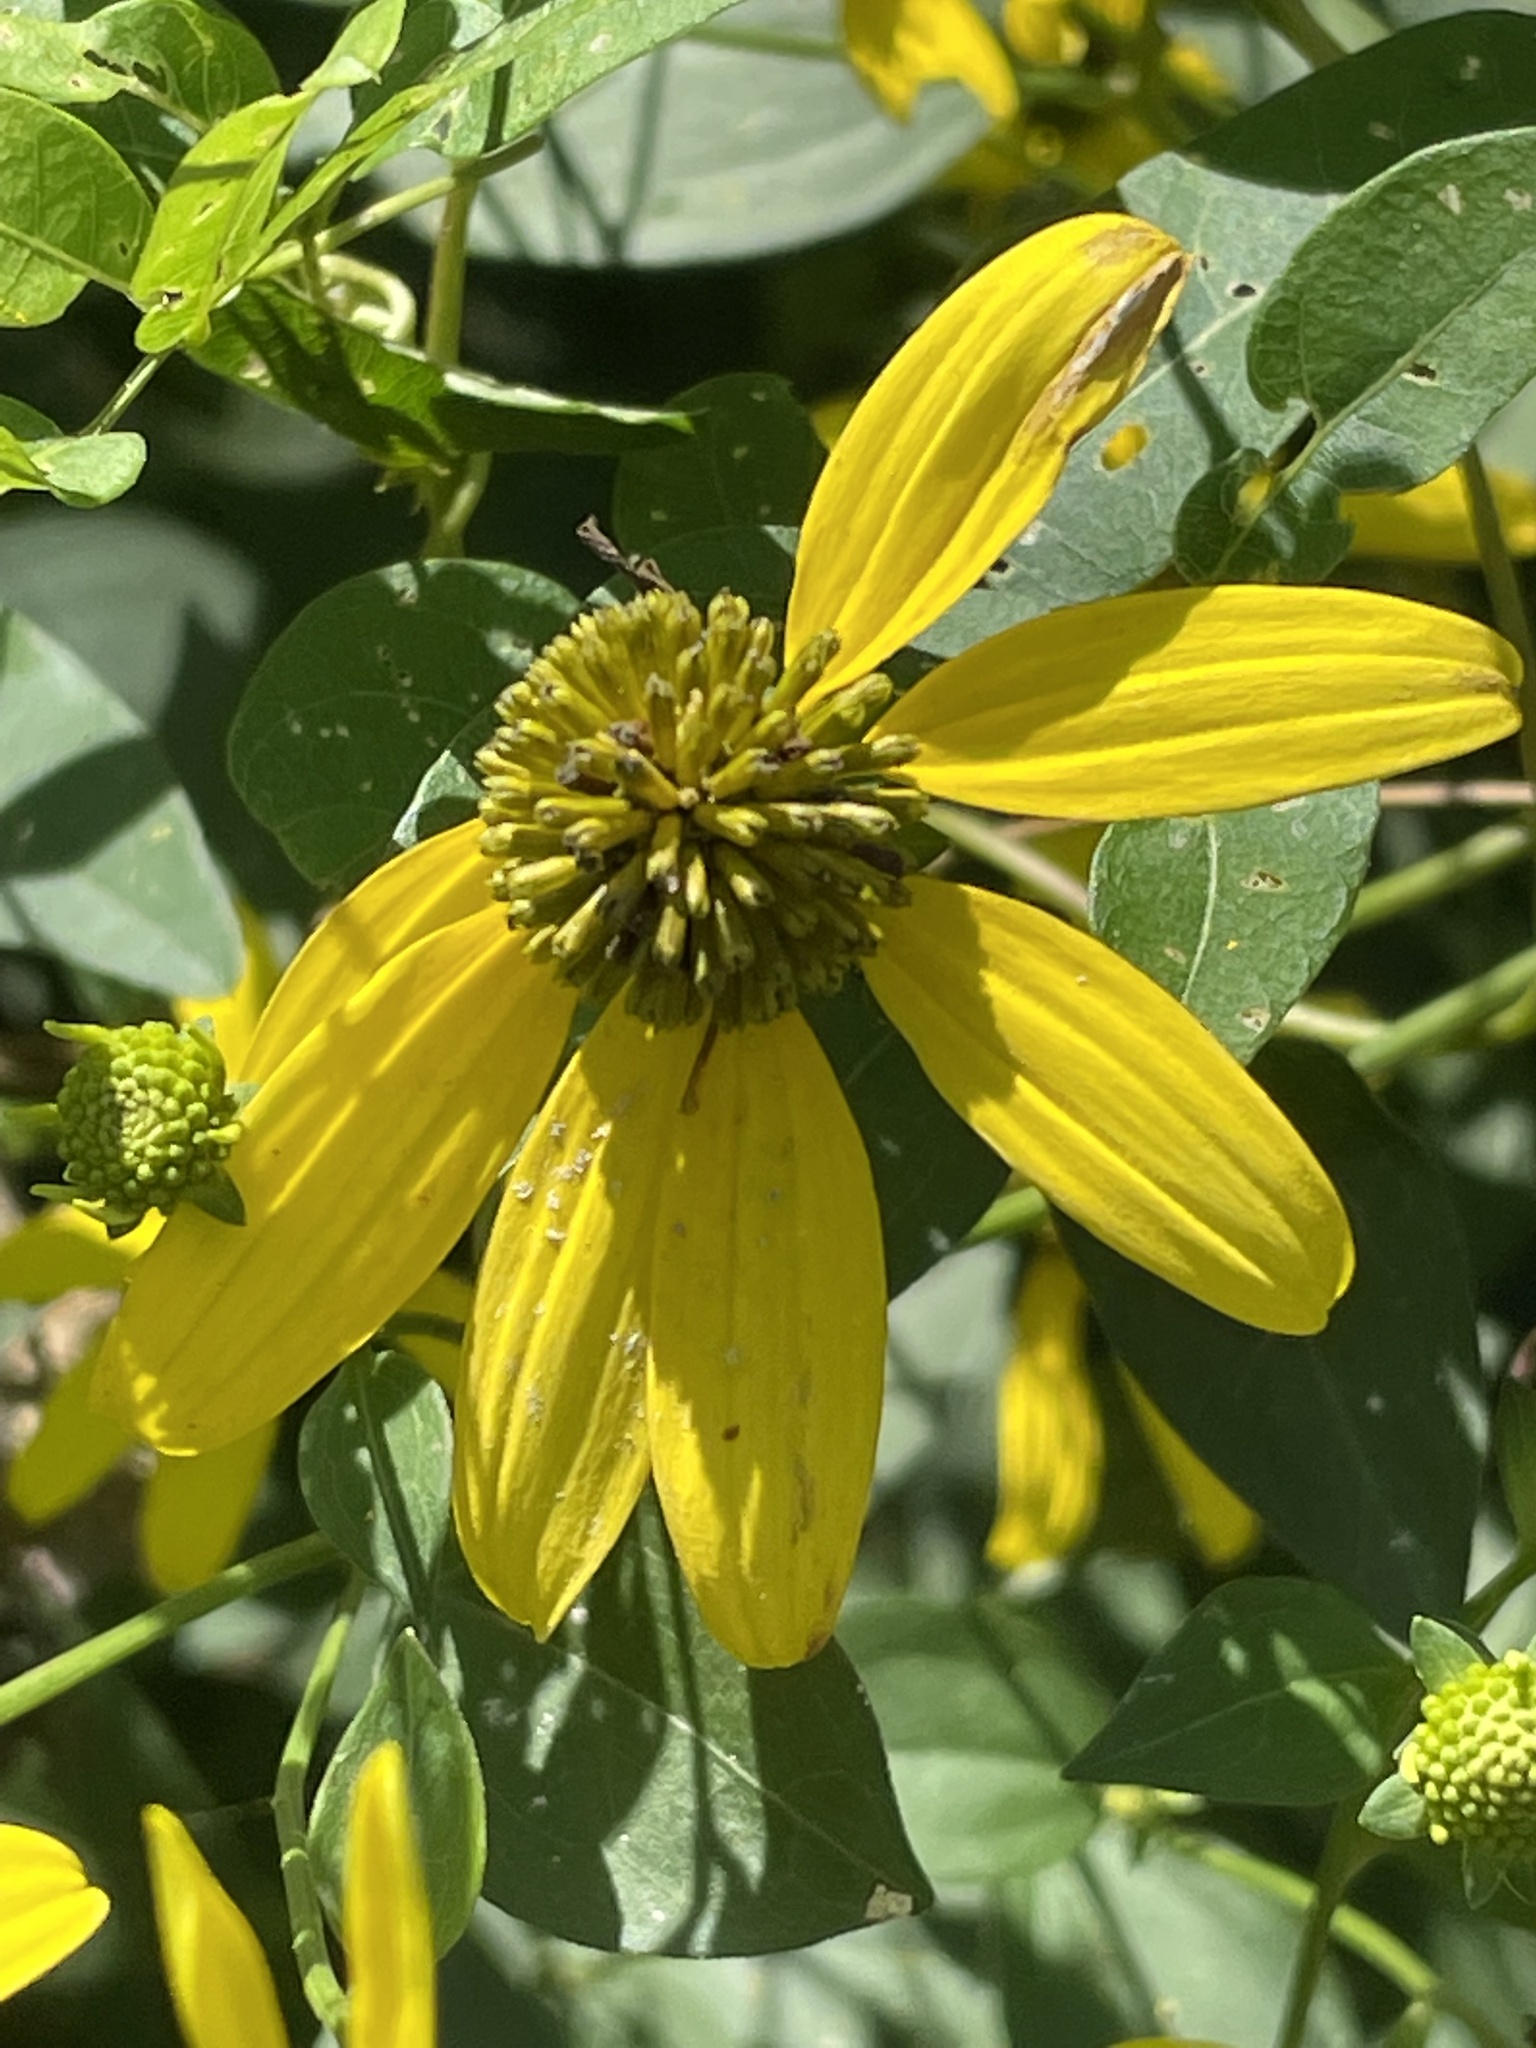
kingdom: Plantae
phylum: Tracheophyta
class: Magnoliopsida
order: Asterales
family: Asteraceae
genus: Rudbeckia
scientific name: Rudbeckia laciniata
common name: Coneflower
